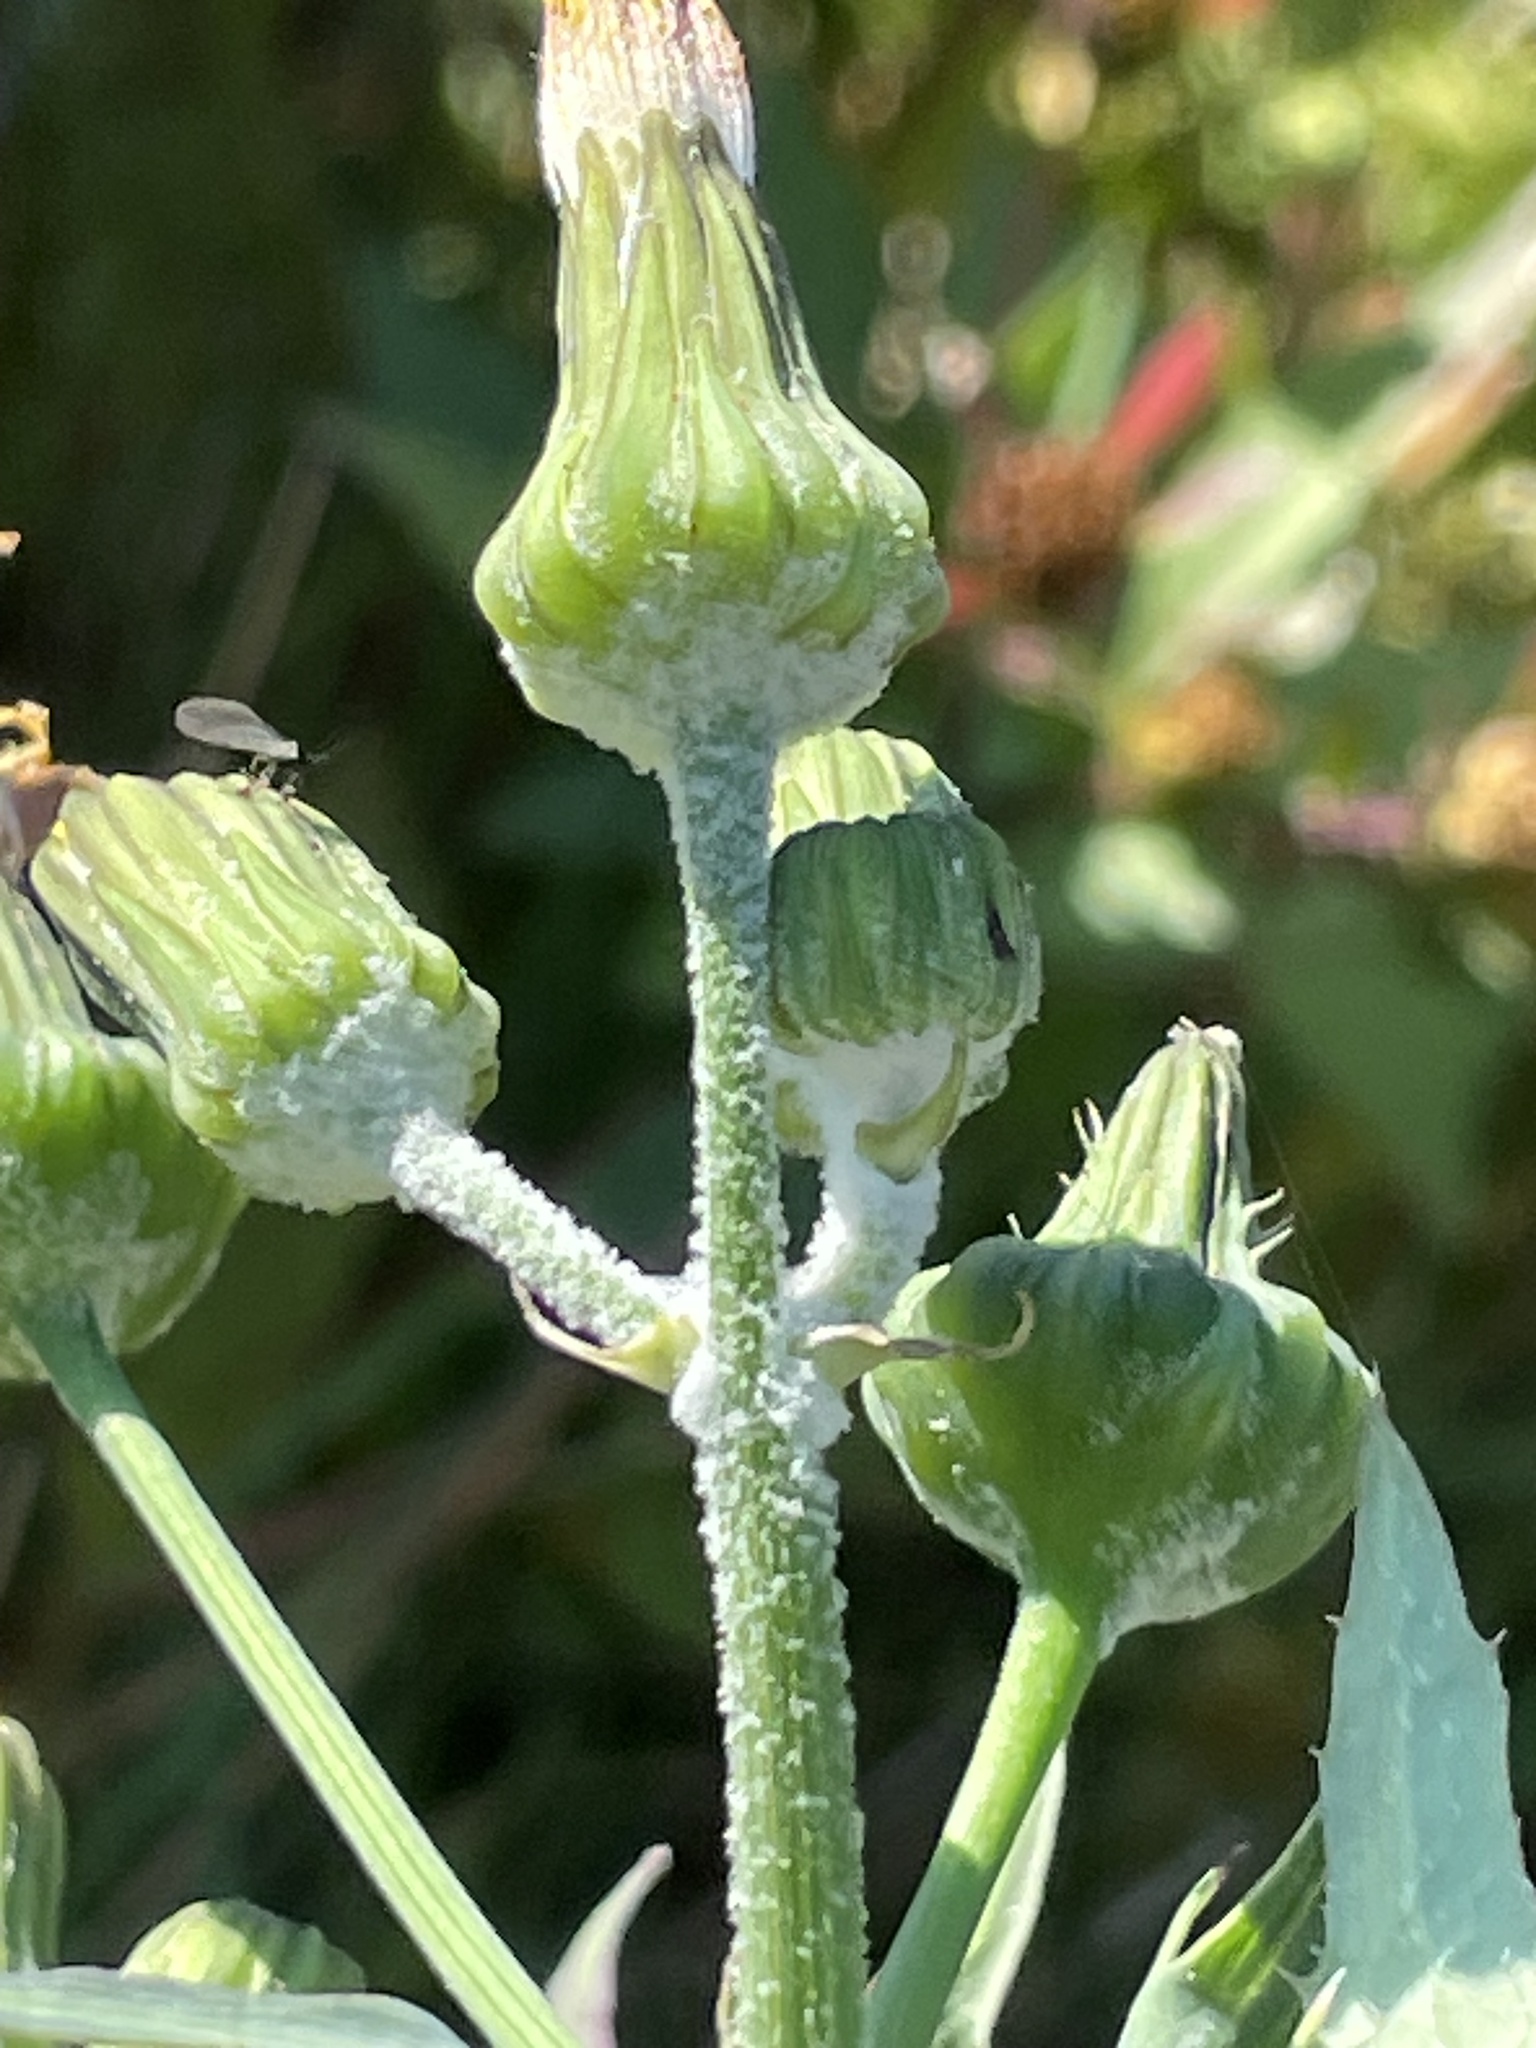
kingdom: Plantae
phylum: Tracheophyta
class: Magnoliopsida
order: Asterales
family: Asteraceae
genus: Sonchus
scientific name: Sonchus oleraceus
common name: Common sowthistle
